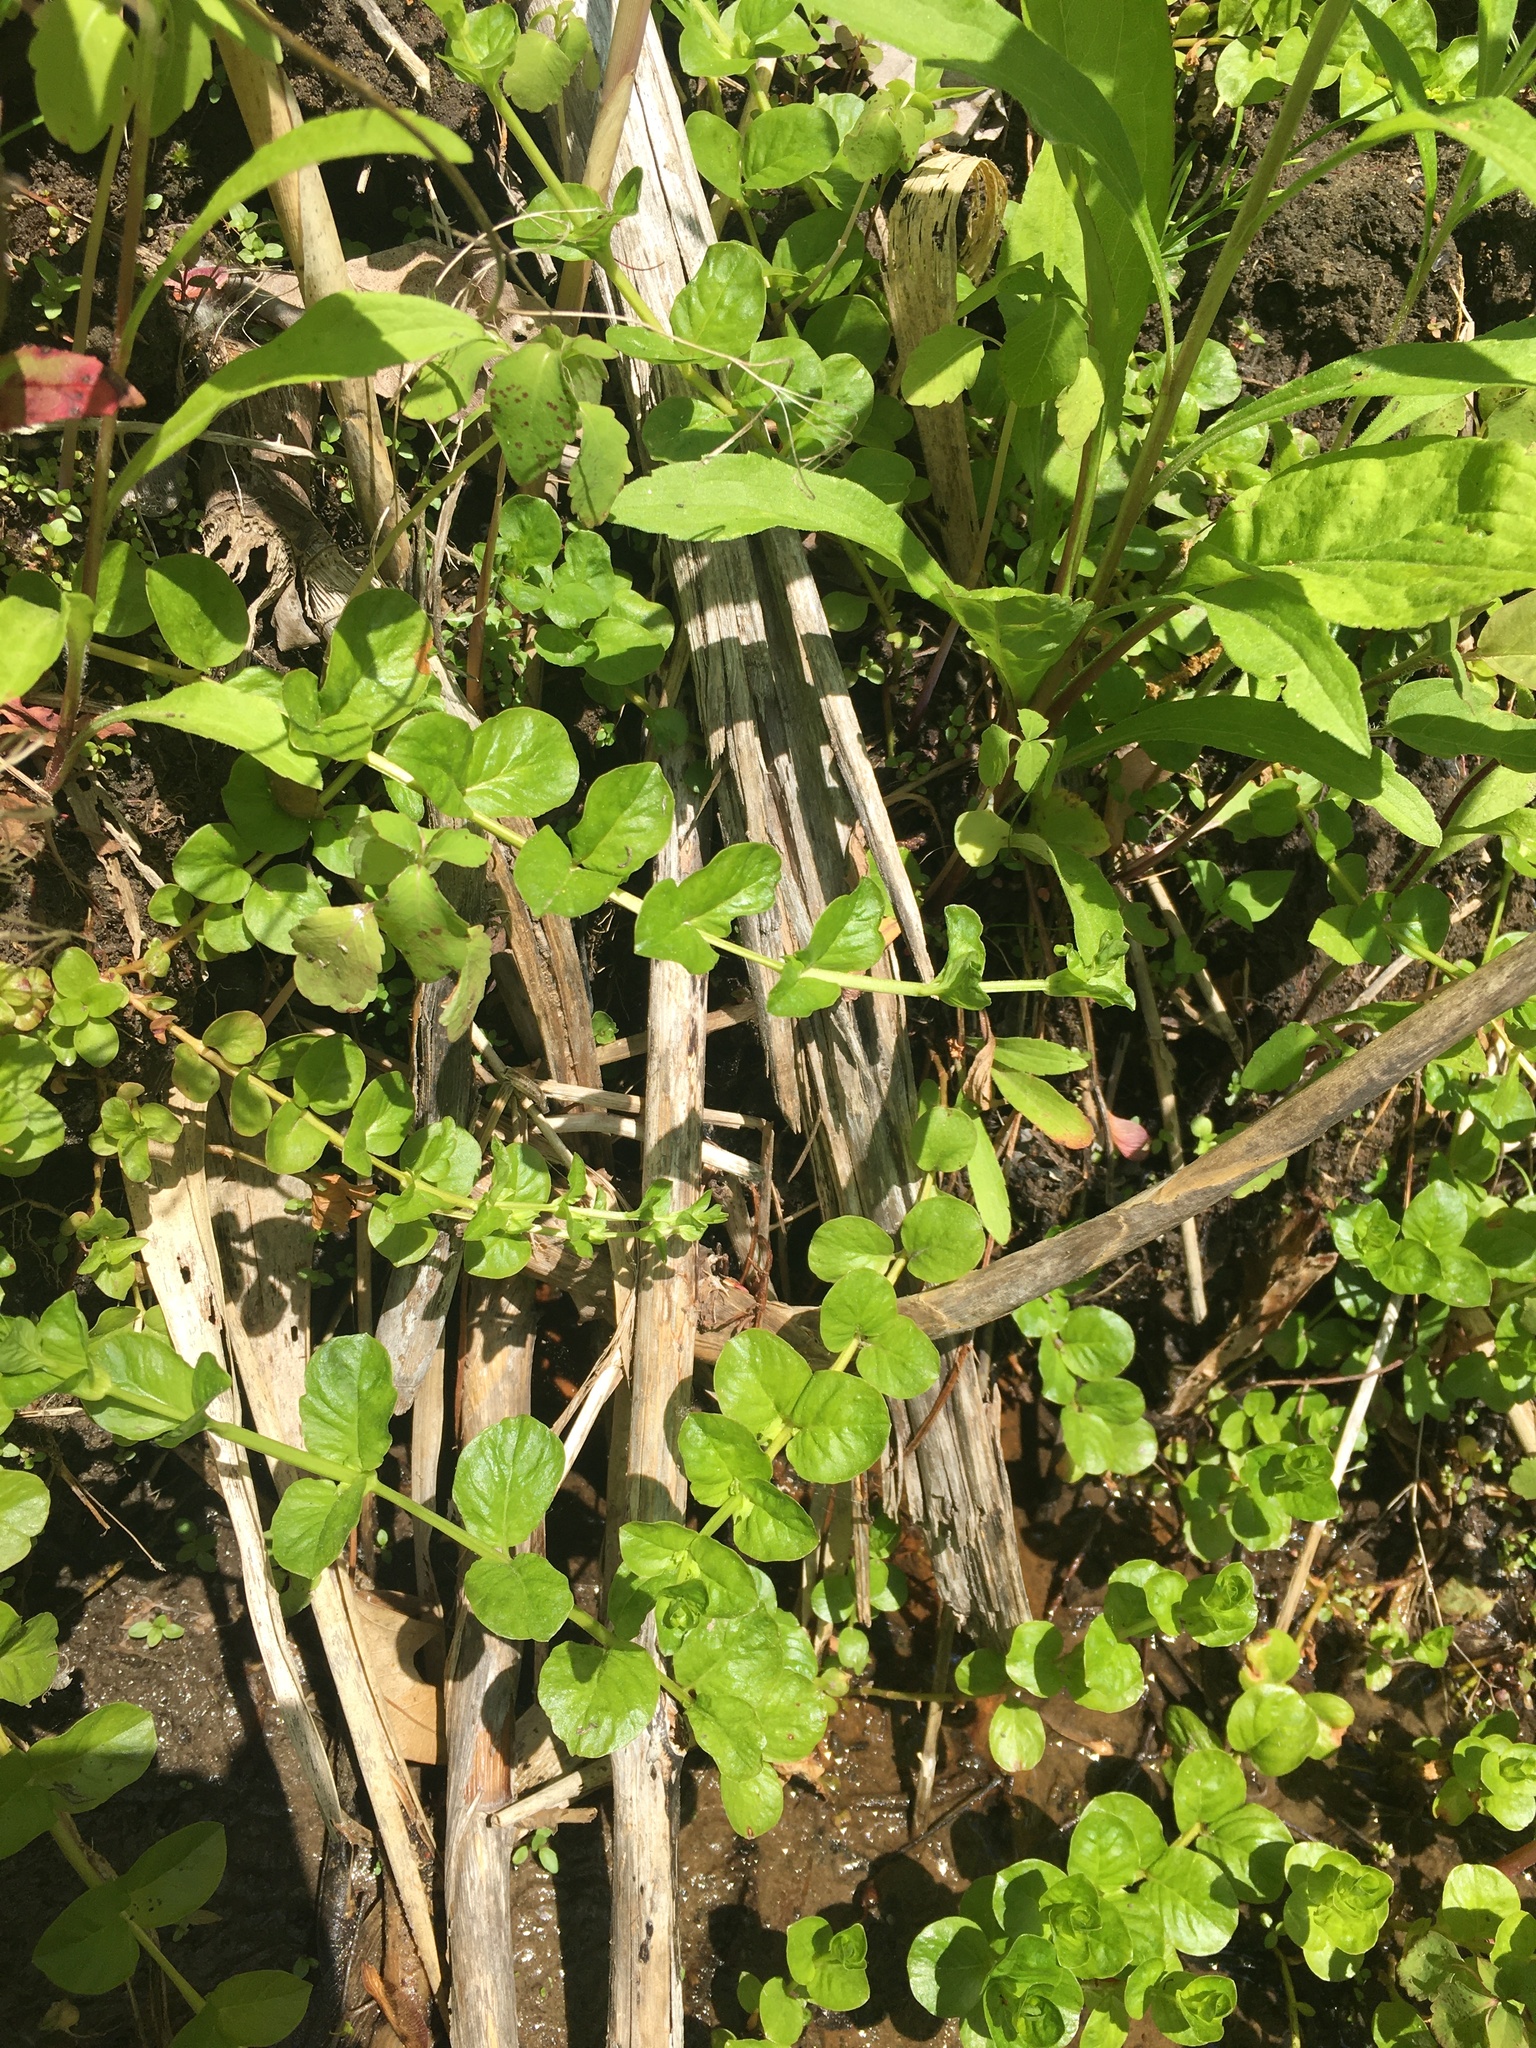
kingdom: Plantae
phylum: Tracheophyta
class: Magnoliopsida
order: Ericales
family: Primulaceae
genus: Lysimachia
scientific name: Lysimachia nummularia
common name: Moneywort
